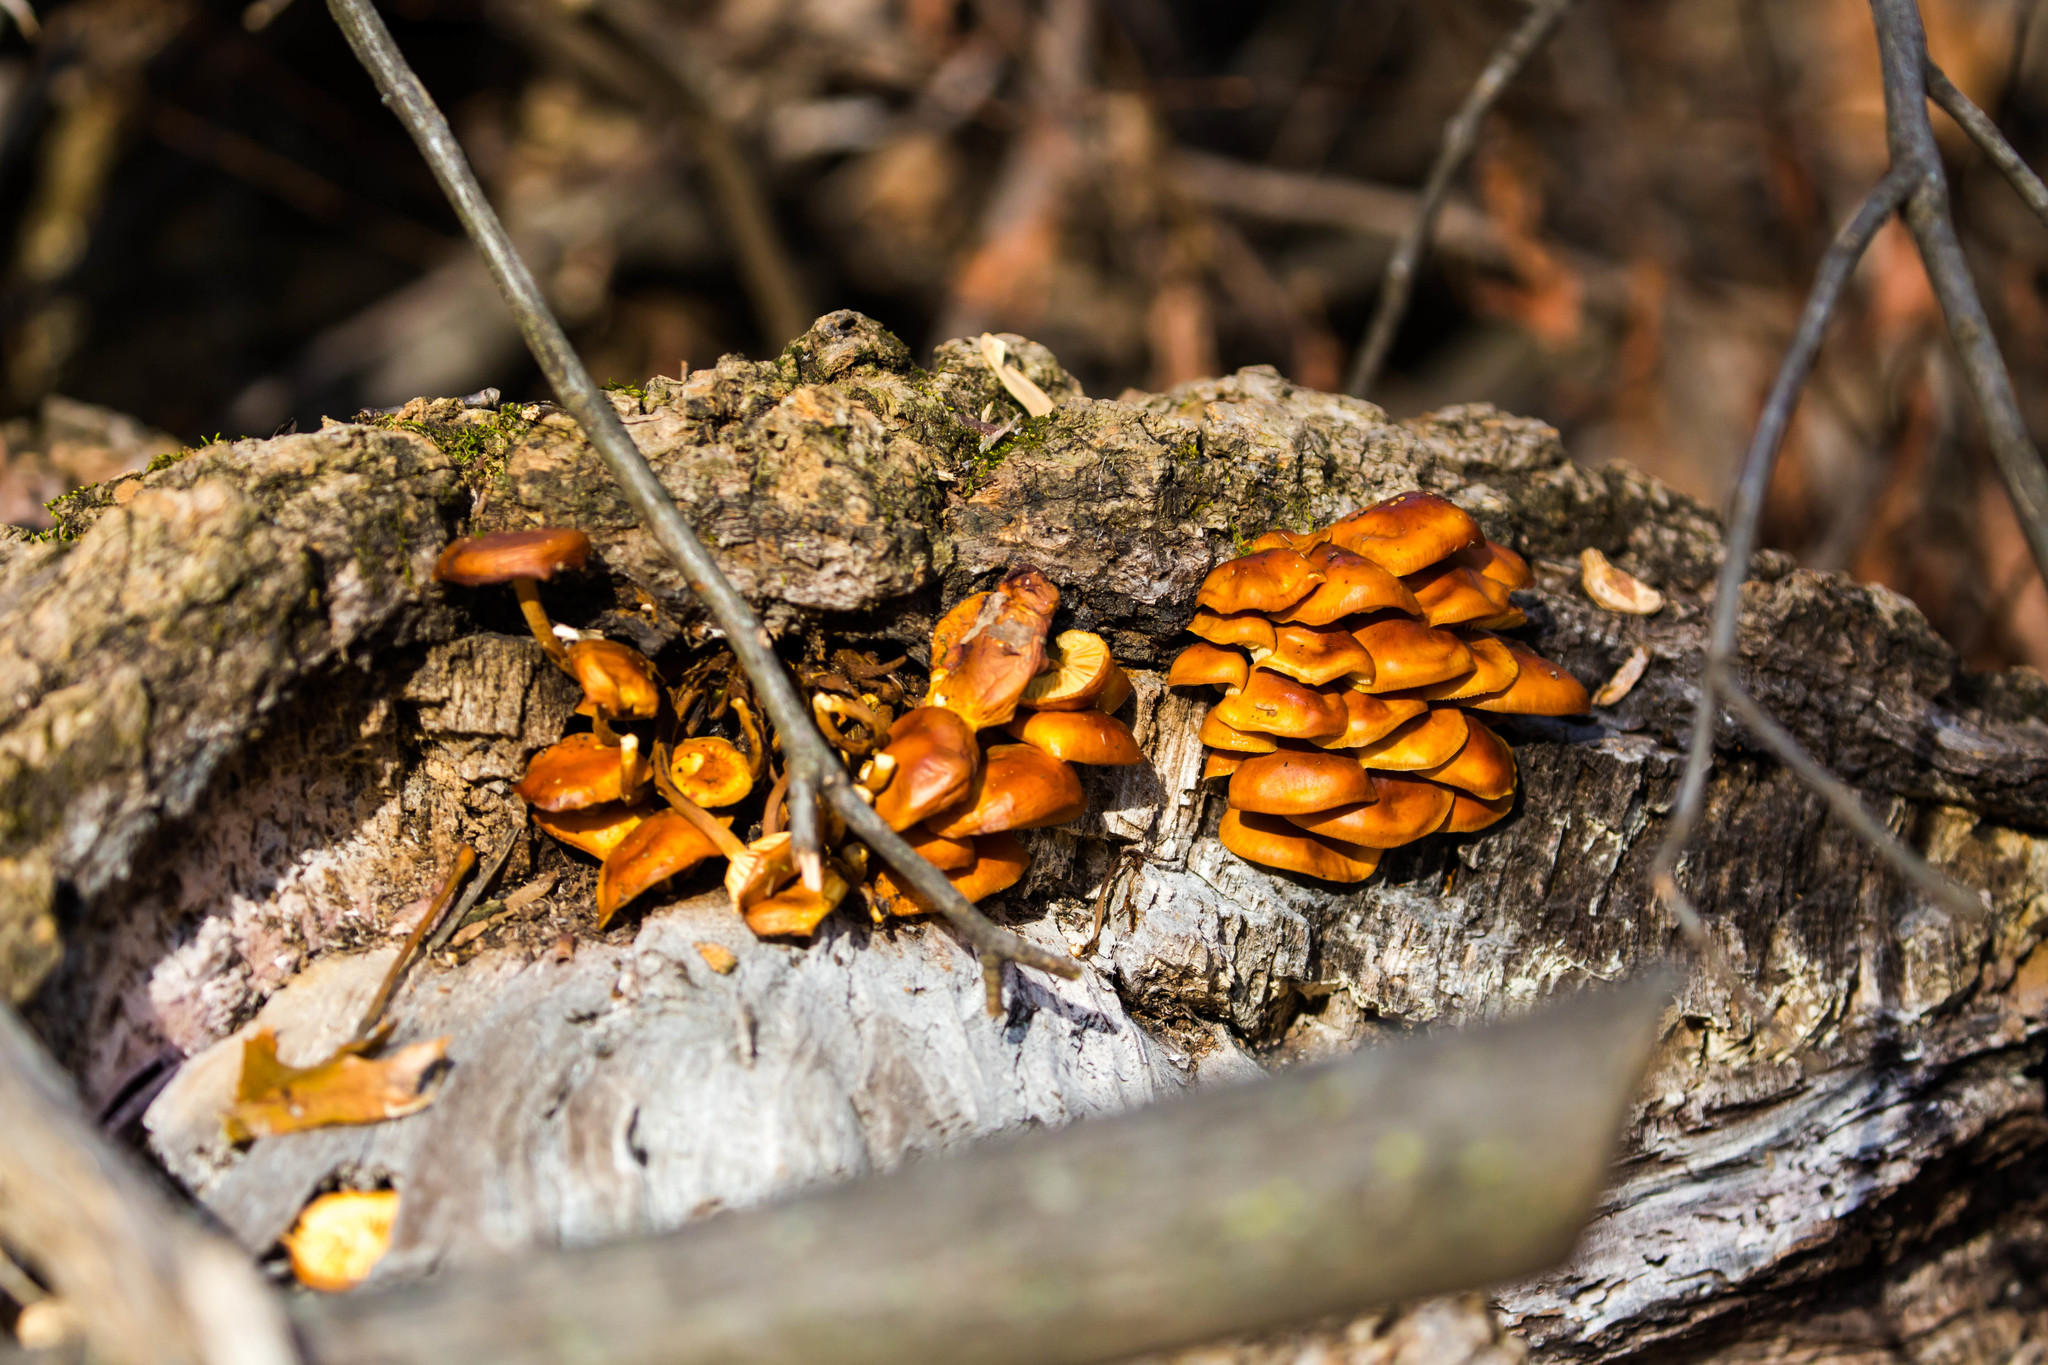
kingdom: Fungi
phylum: Basidiomycota
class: Agaricomycetes
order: Agaricales
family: Physalacriaceae
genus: Flammulina
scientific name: Flammulina velutipes
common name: Velvet shank
